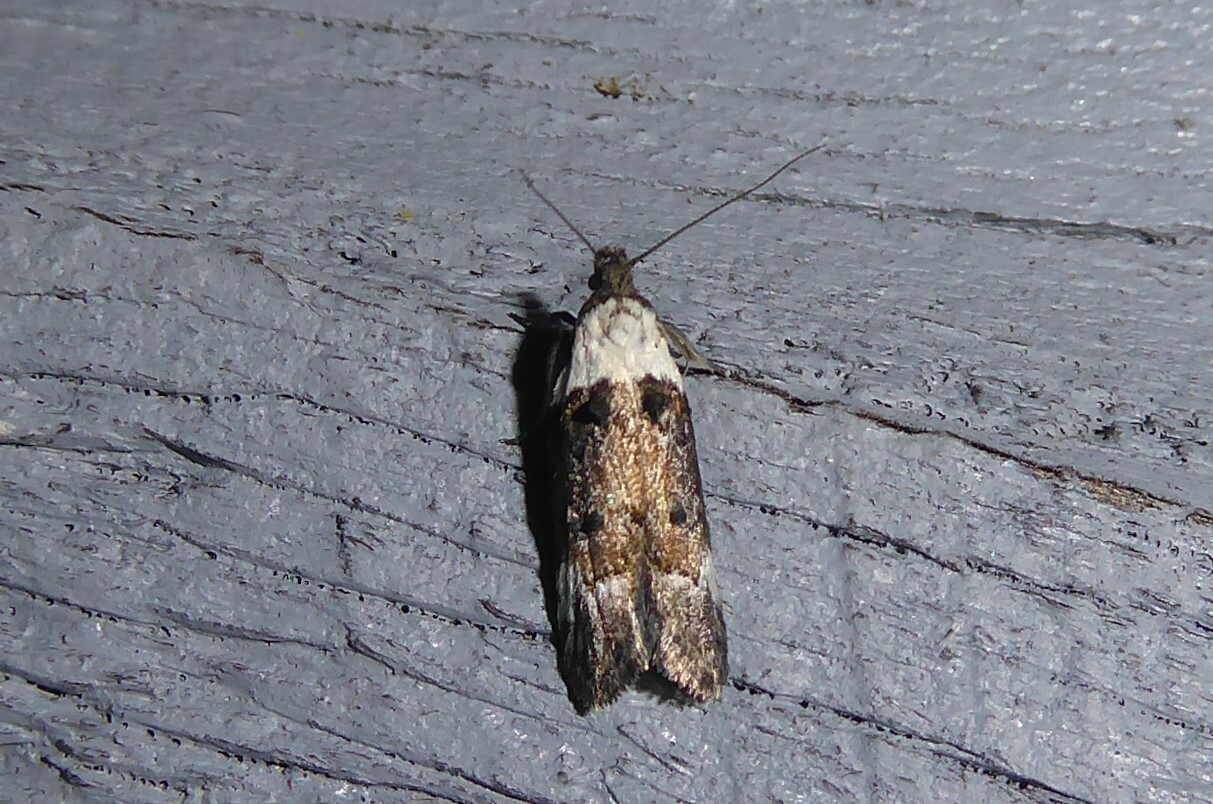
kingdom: Animalia
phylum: Arthropoda
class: Insecta
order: Lepidoptera
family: Oecophoridae
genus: Trachypepla
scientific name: Trachypepla conspicuella
